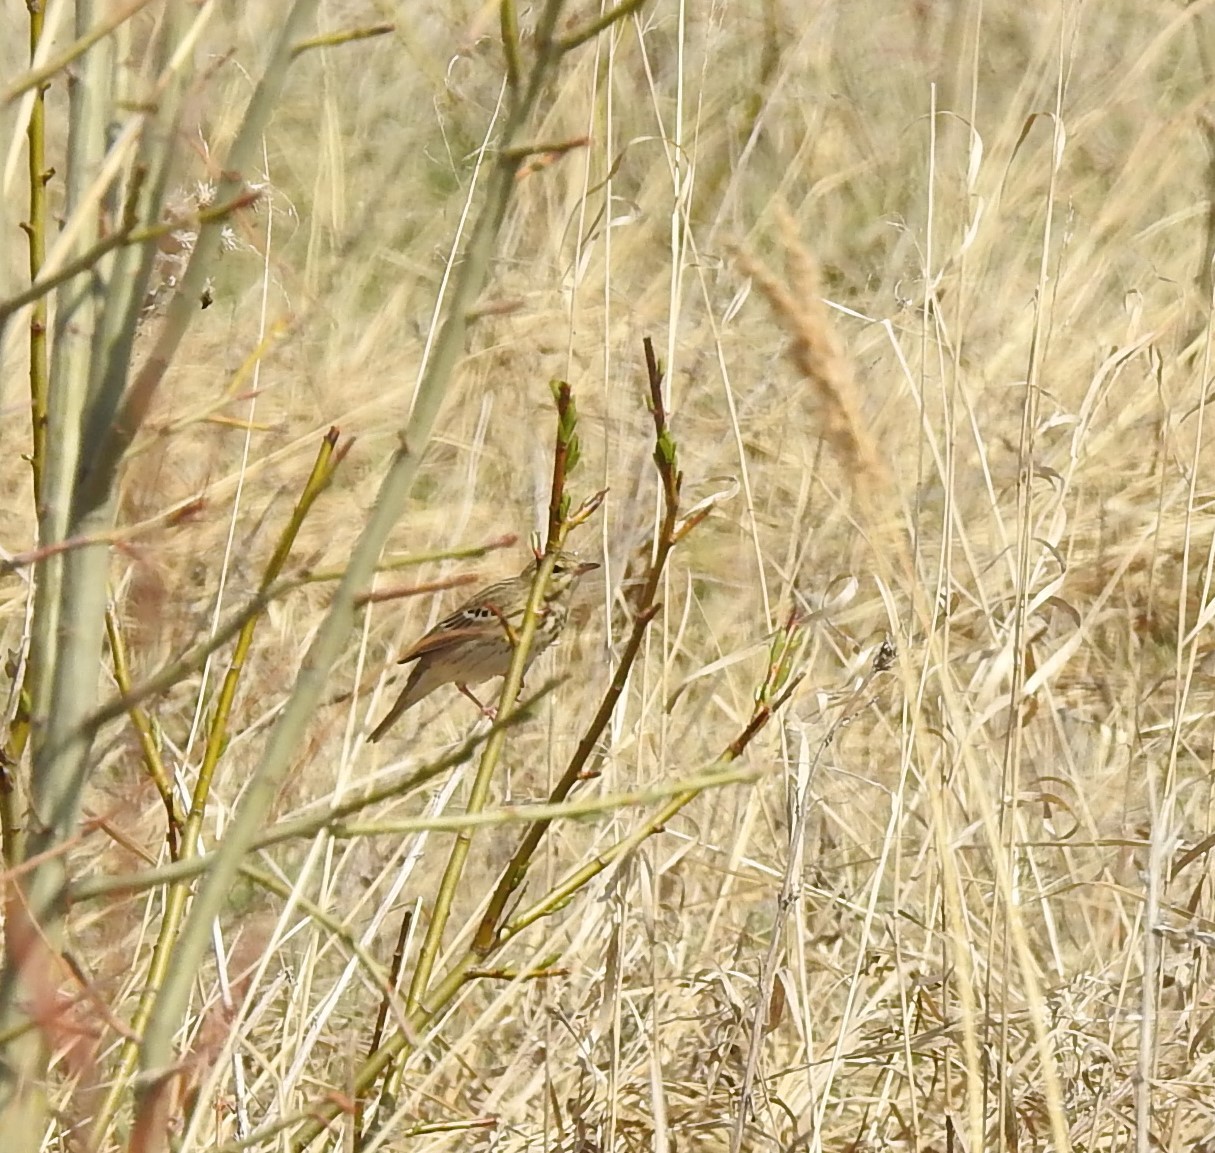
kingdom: Animalia
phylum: Chordata
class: Aves
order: Passeriformes
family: Motacillidae
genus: Anthus
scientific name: Anthus trivialis
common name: Tree pipit
